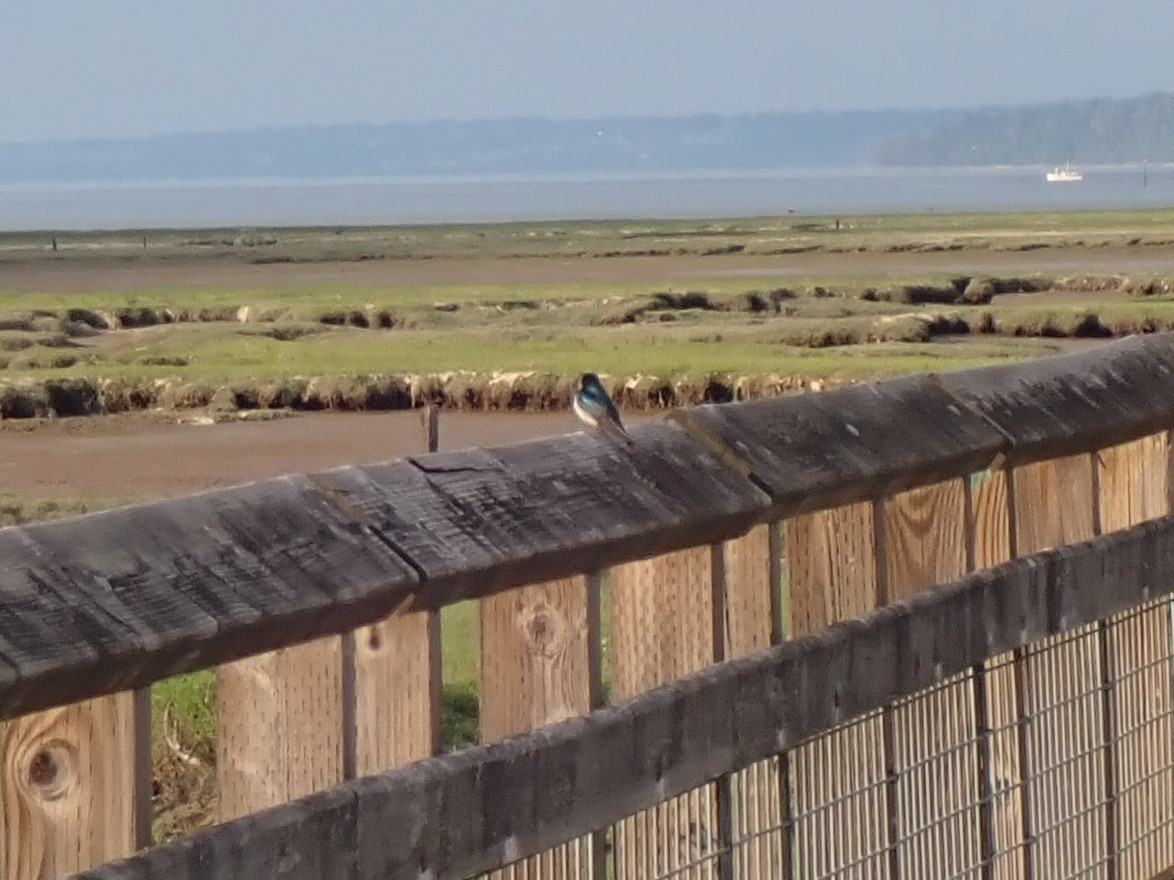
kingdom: Animalia
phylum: Chordata
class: Aves
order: Passeriformes
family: Hirundinidae
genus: Hirundo
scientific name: Hirundo rustica
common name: Barn swallow
